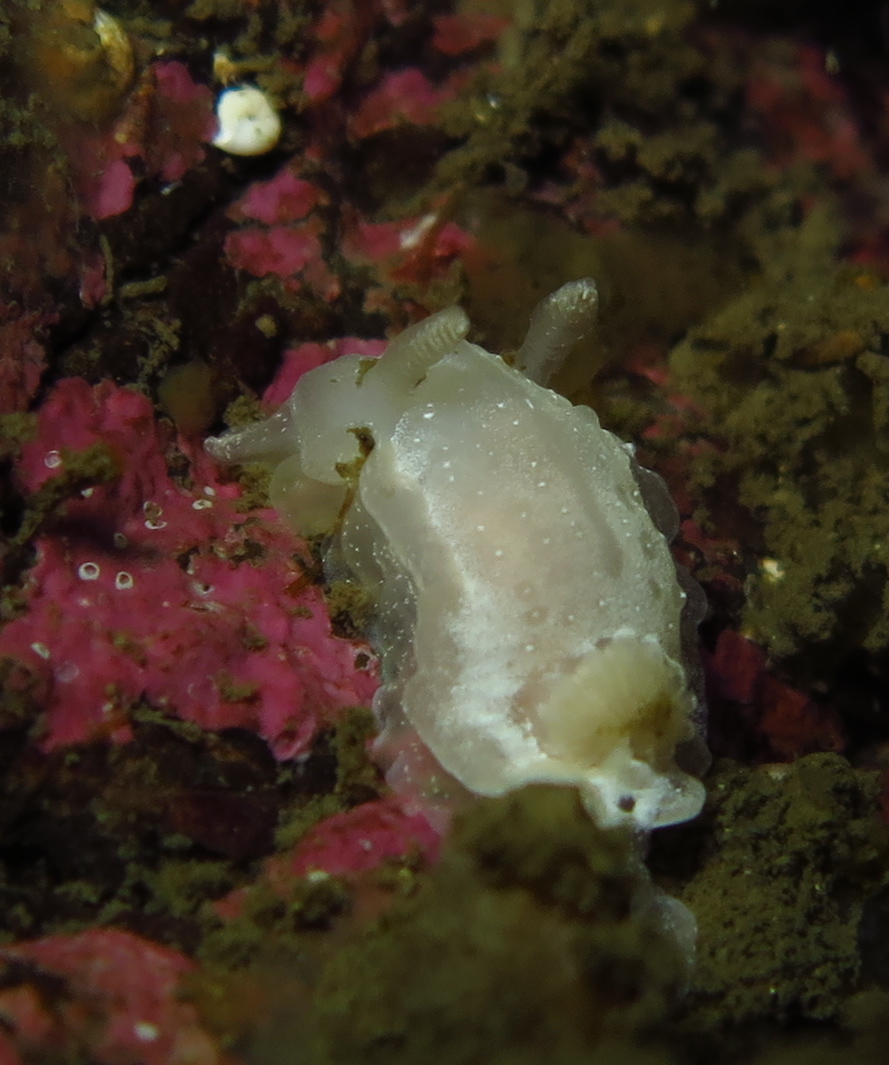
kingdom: Animalia
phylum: Mollusca
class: Gastropoda
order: Nudibranchia
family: Goniodorididae
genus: Okenia
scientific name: Okenia
